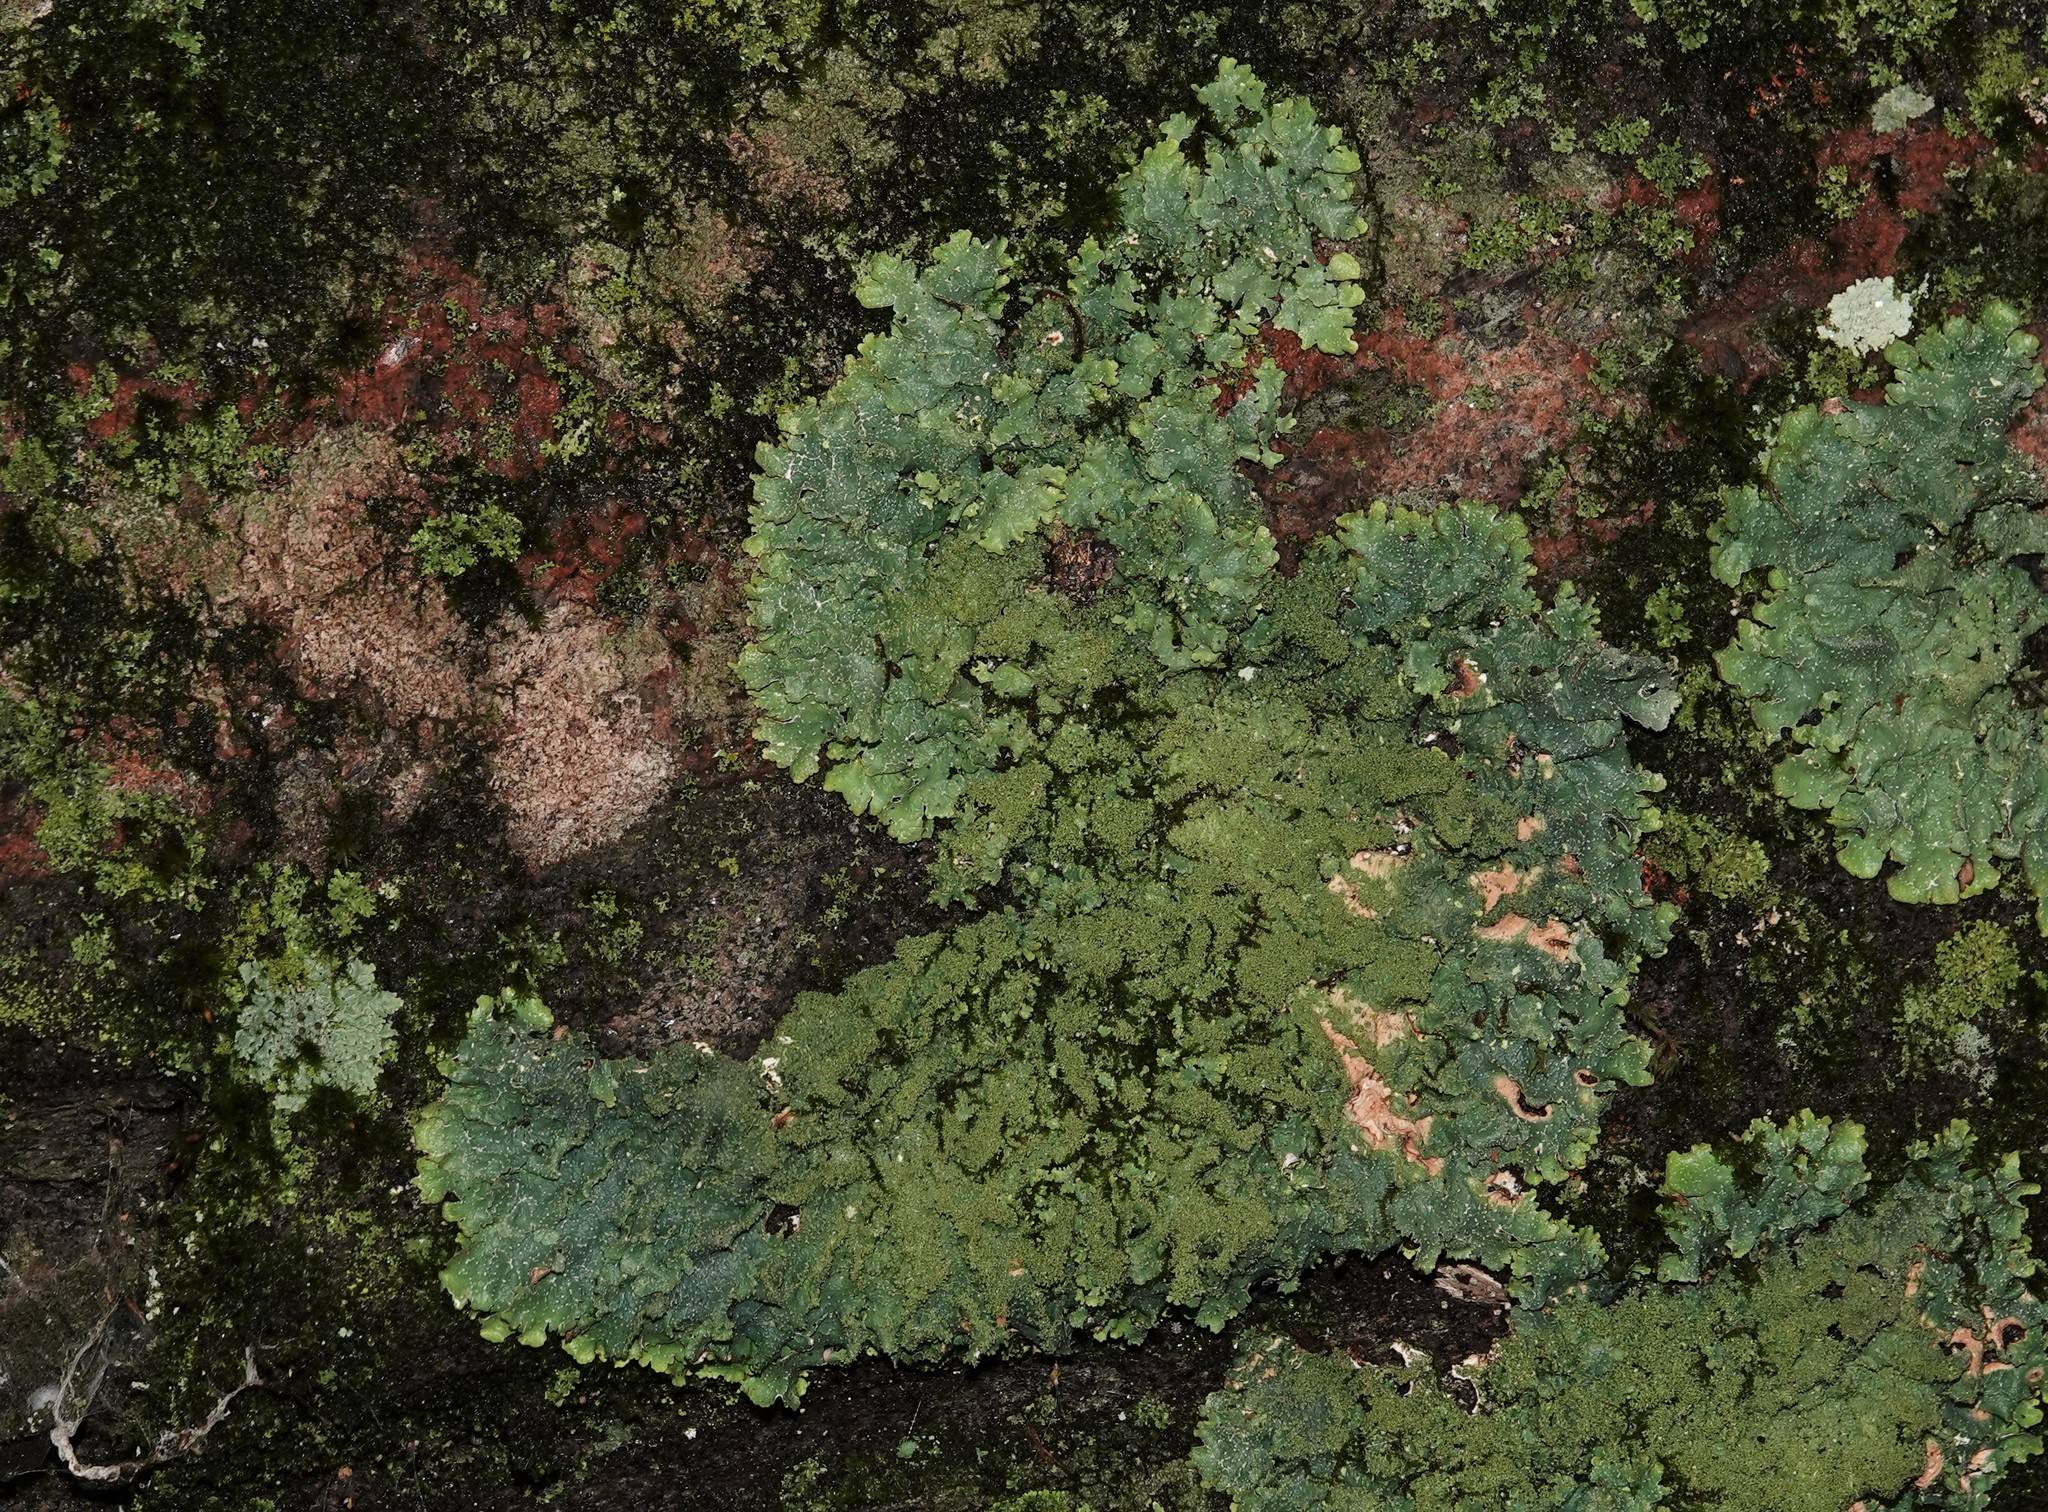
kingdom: Fungi
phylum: Ascomycota
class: Lecanoromycetes
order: Lecanorales
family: Parmeliaceae
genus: Punctelia
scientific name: Punctelia rudecta
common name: Rough speckled shield lichen
